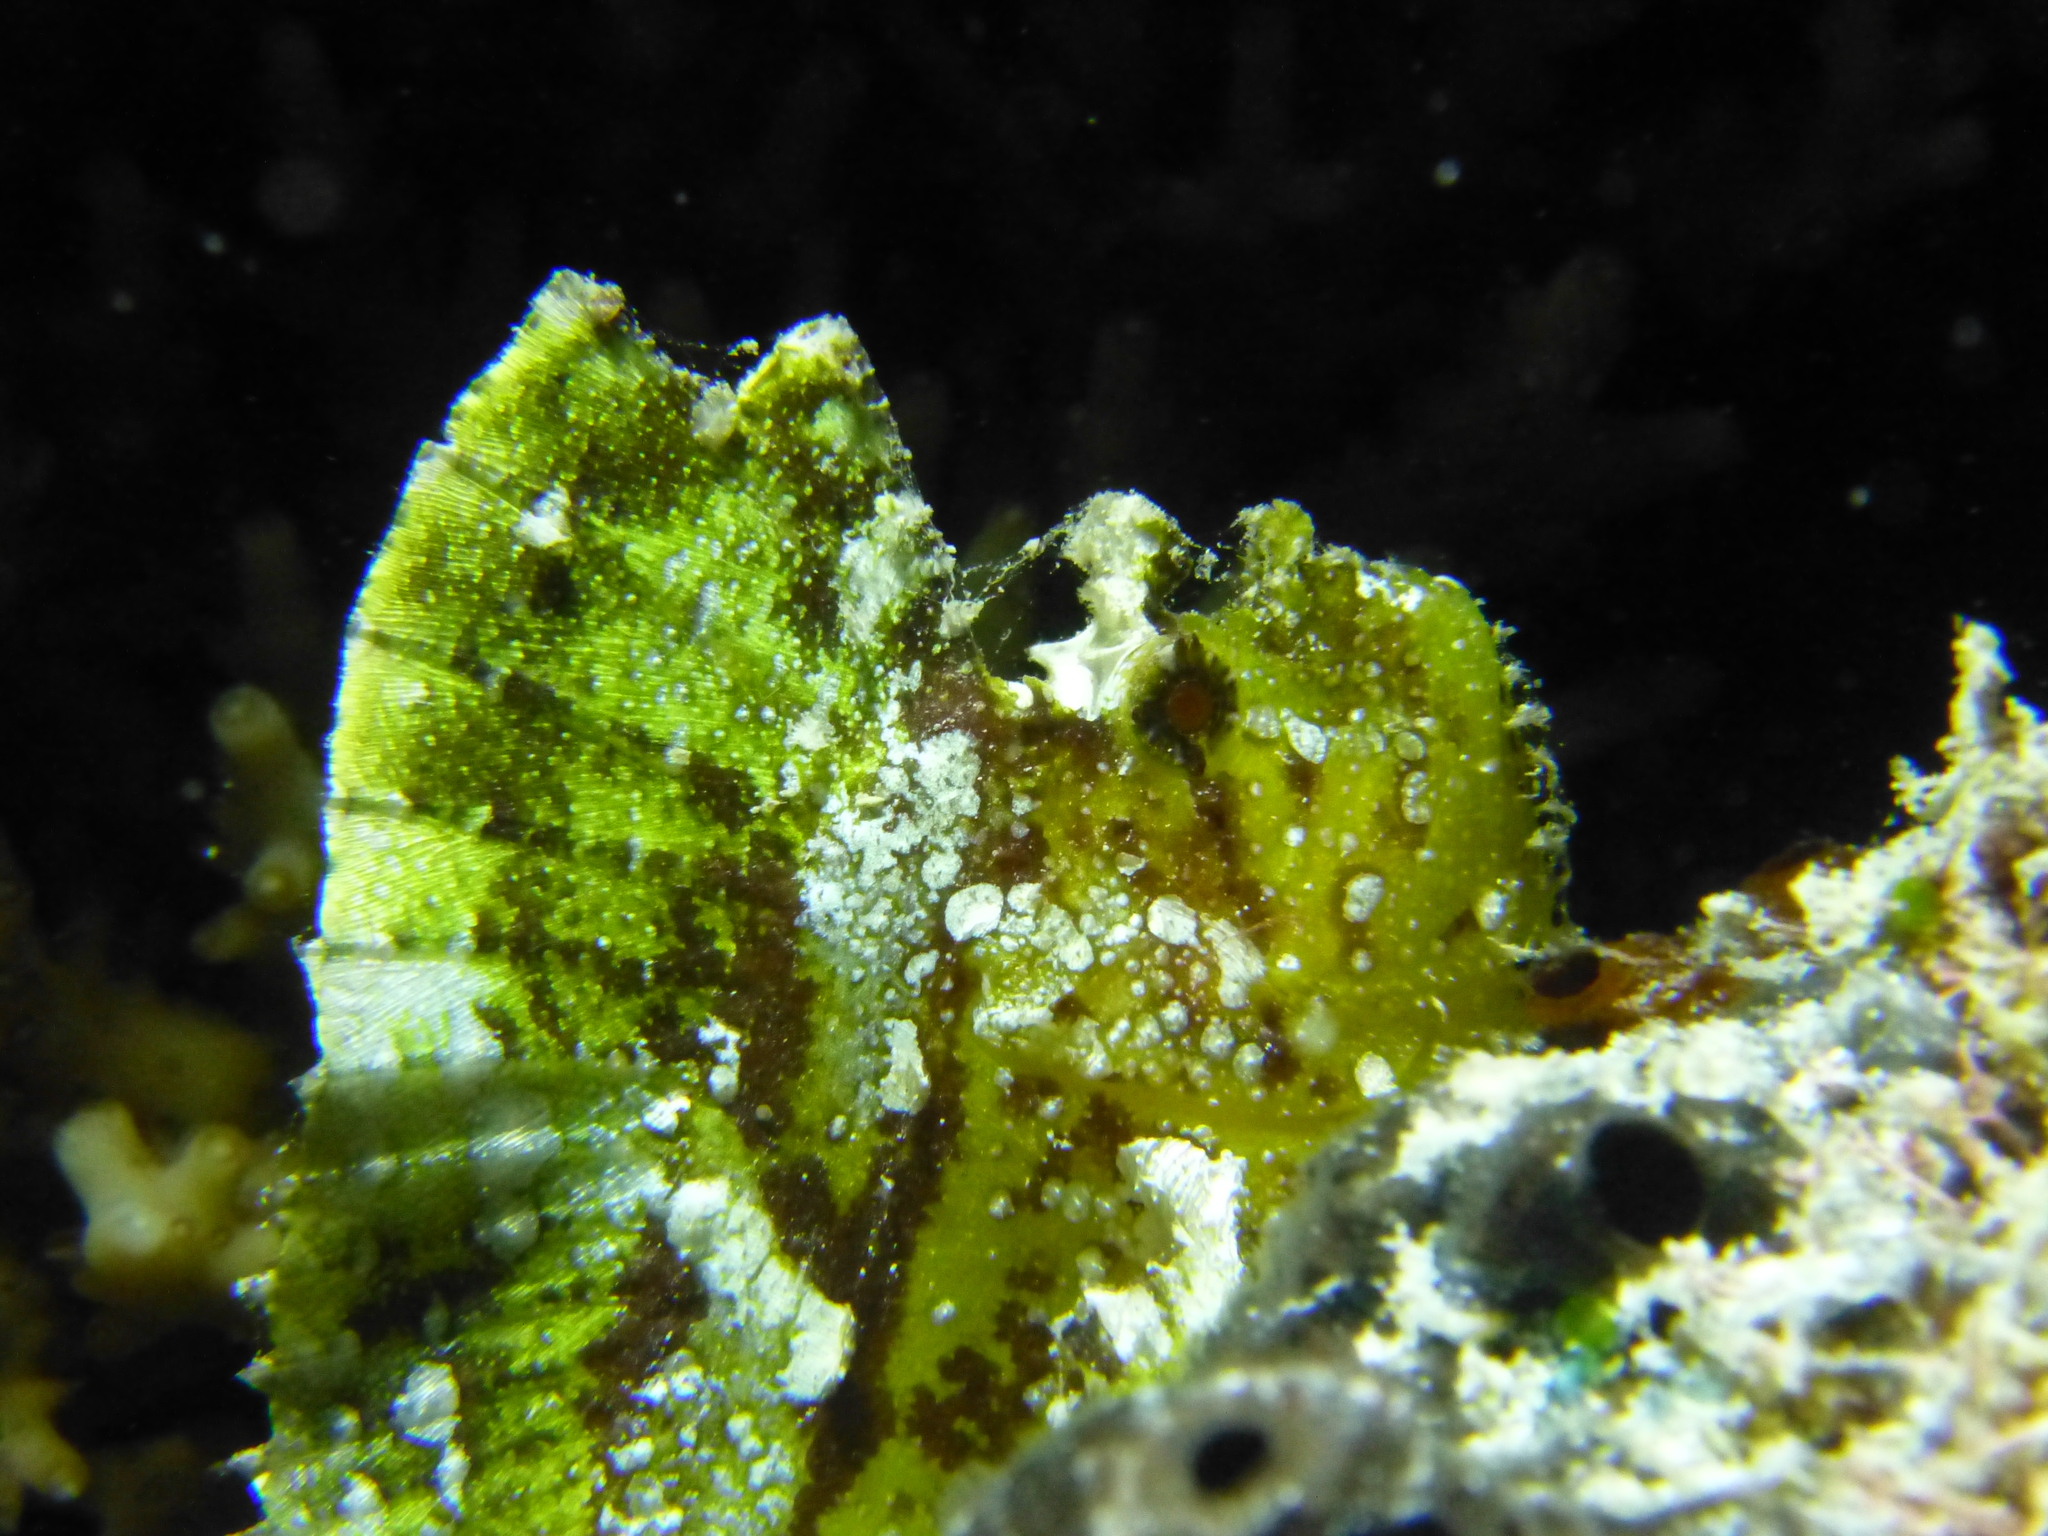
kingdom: Animalia
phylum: Chordata
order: Scorpaeniformes
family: Scorpaenidae
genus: Taenianotus
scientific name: Taenianotus triacanthus
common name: Leaf scorpionfish
